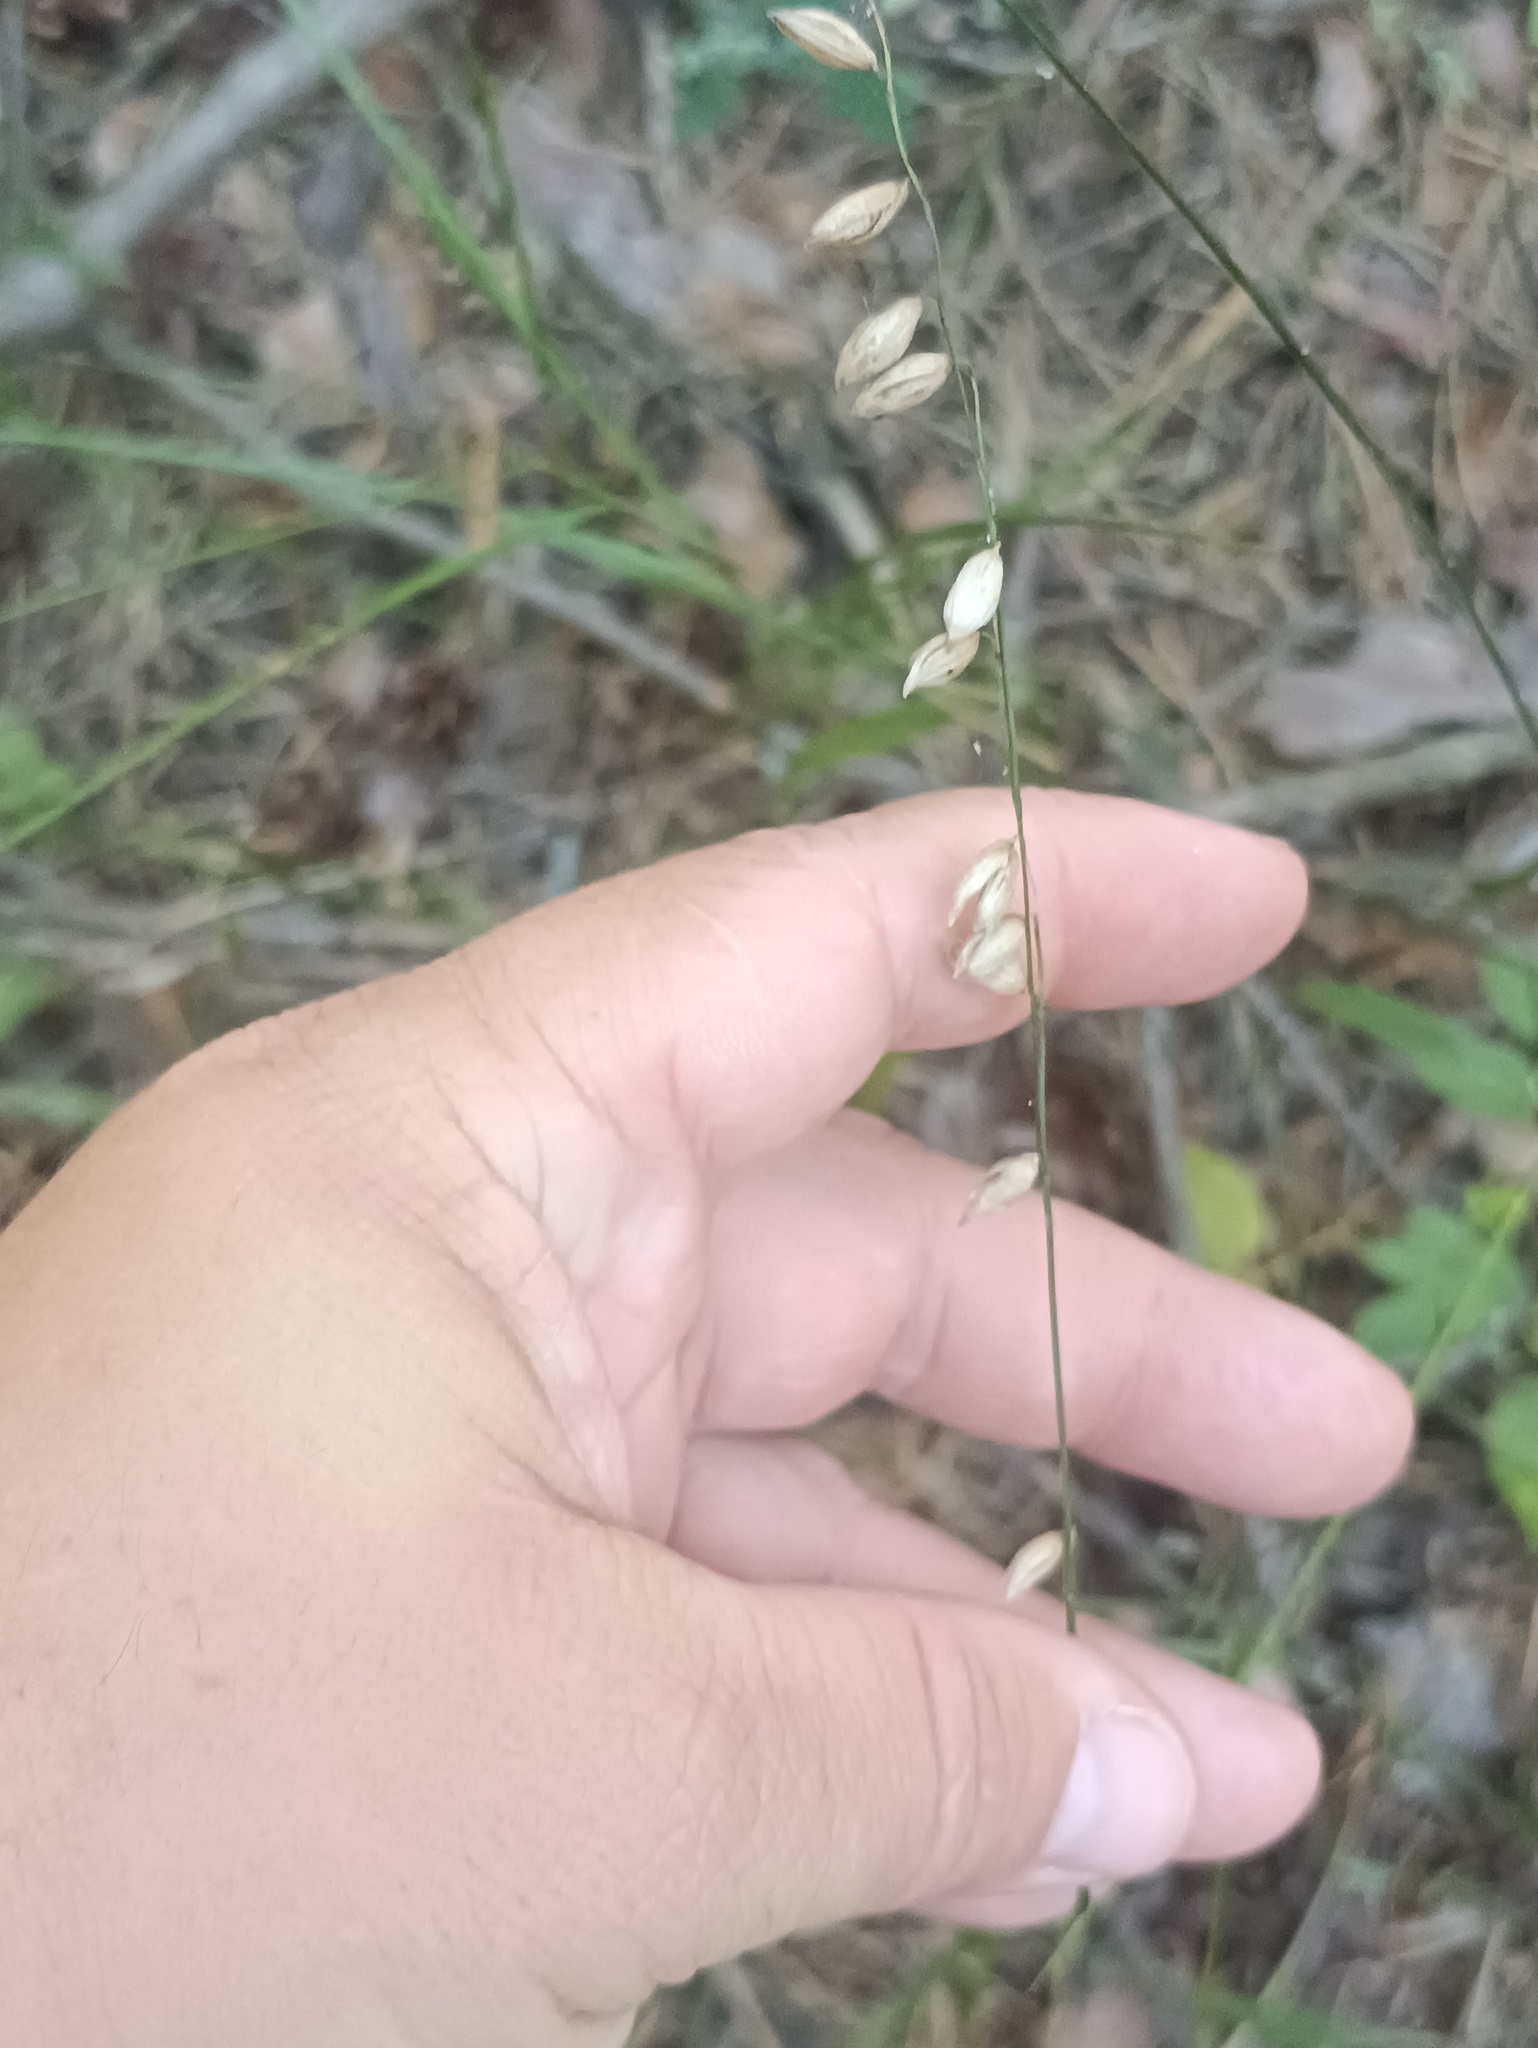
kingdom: Plantae
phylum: Tracheophyta
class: Liliopsida
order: Poales
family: Poaceae
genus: Melica
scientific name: Melica nutans
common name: Mountain melick
